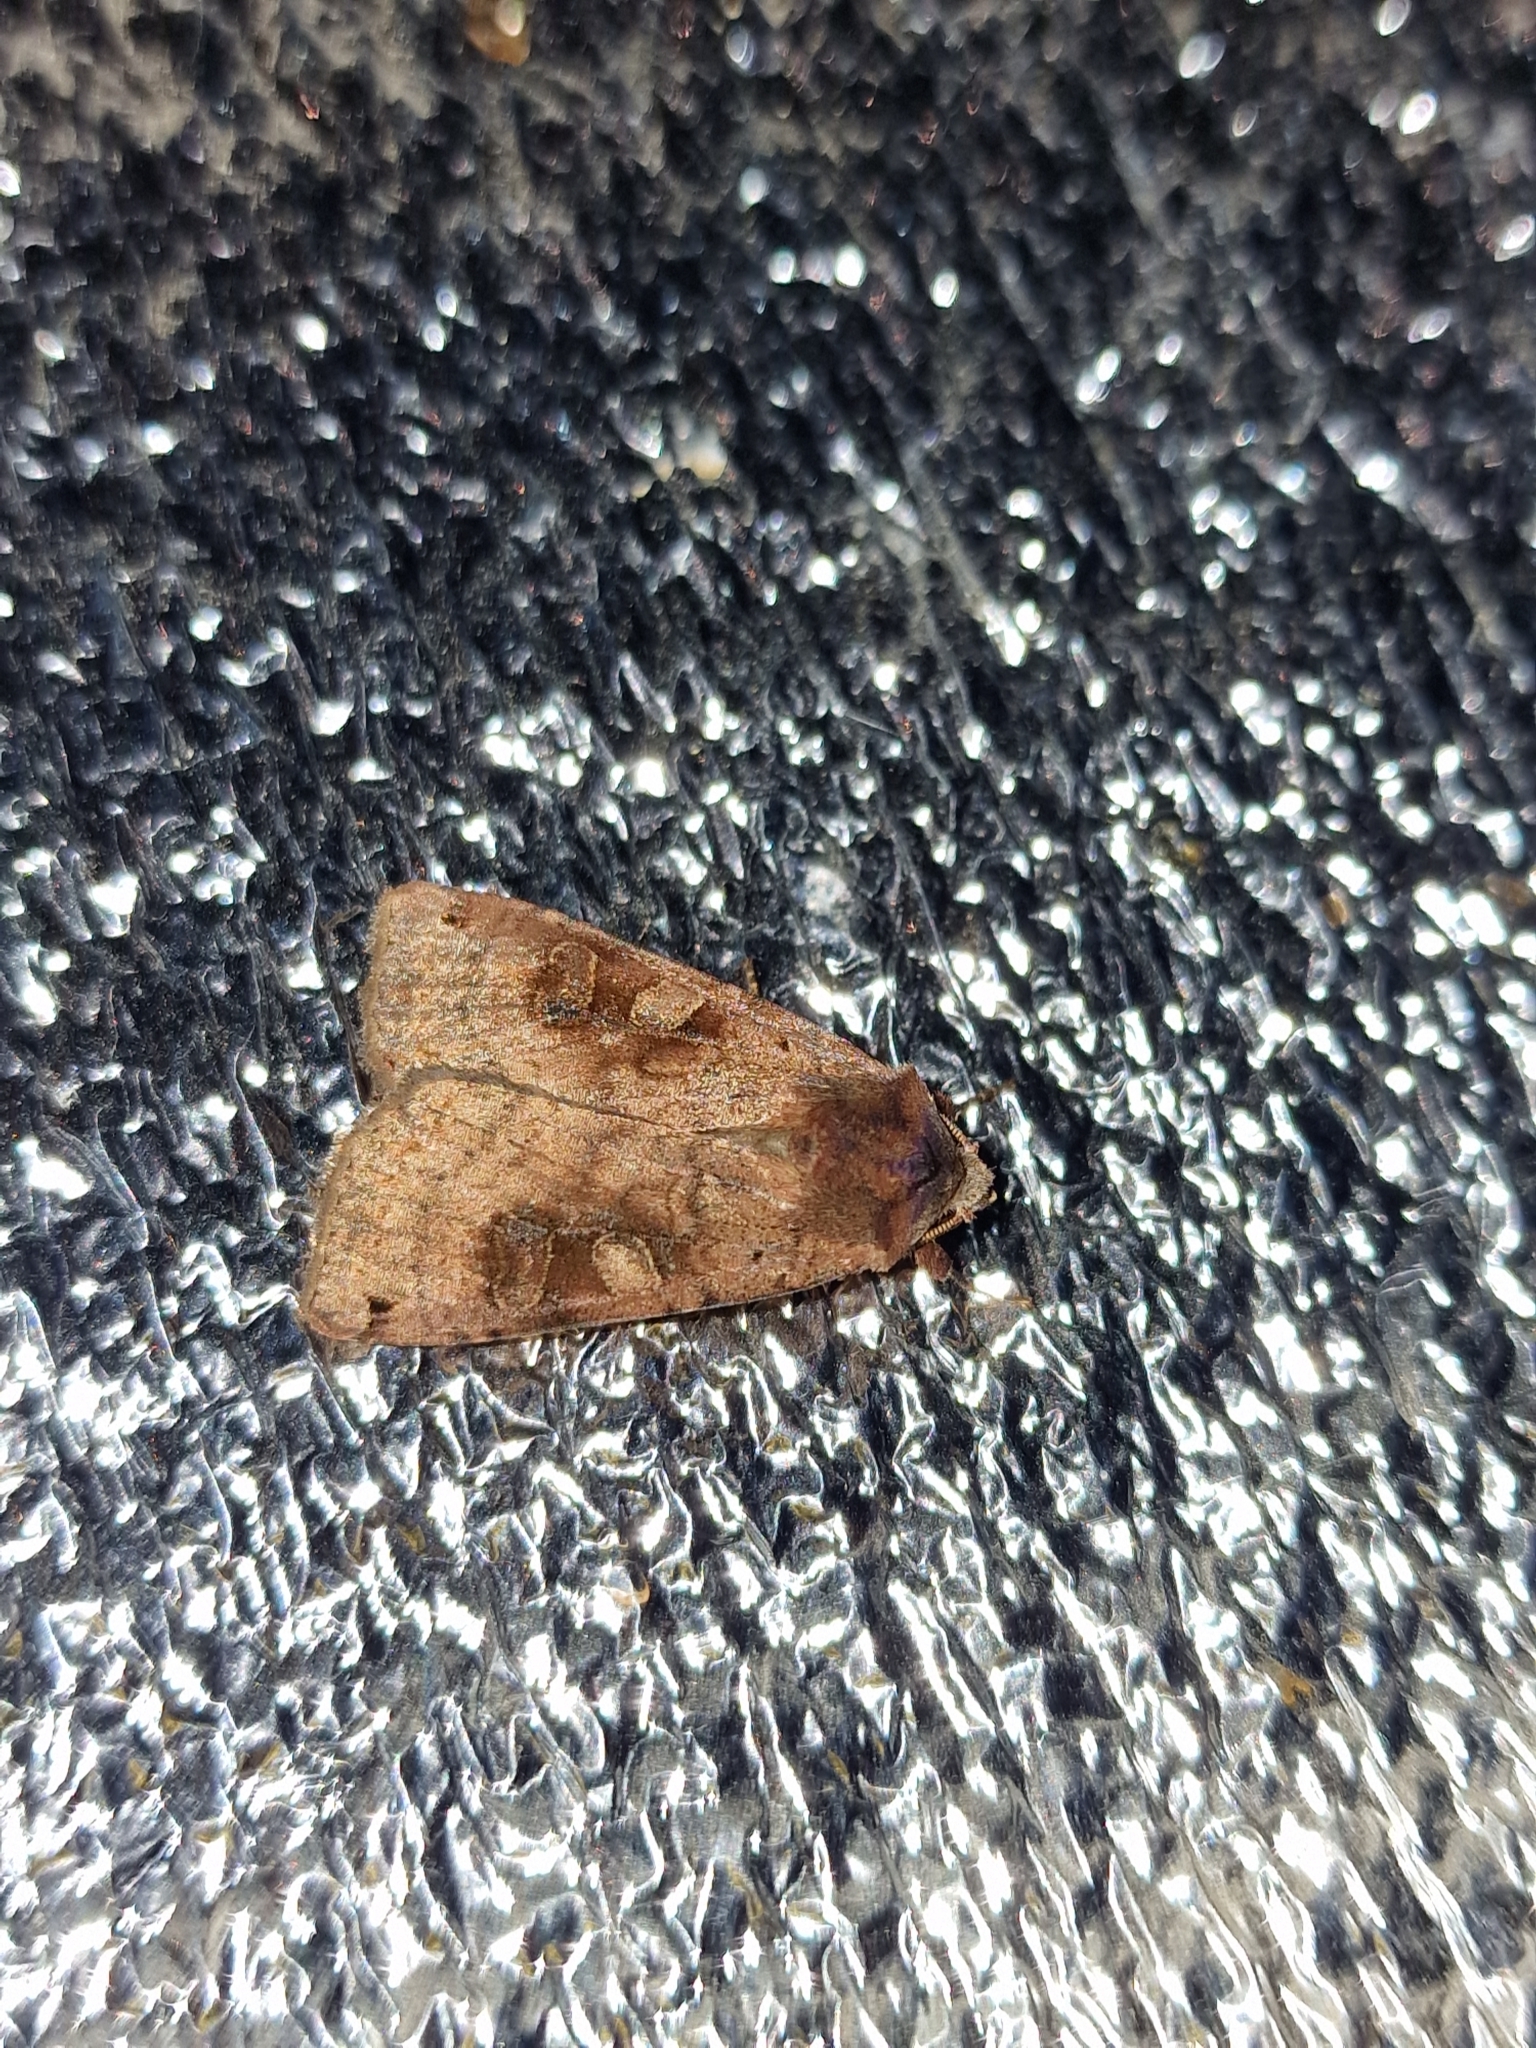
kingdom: Animalia
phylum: Arthropoda
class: Insecta
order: Lepidoptera
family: Noctuidae
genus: Xestia
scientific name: Xestia baja
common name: Dotted clay
